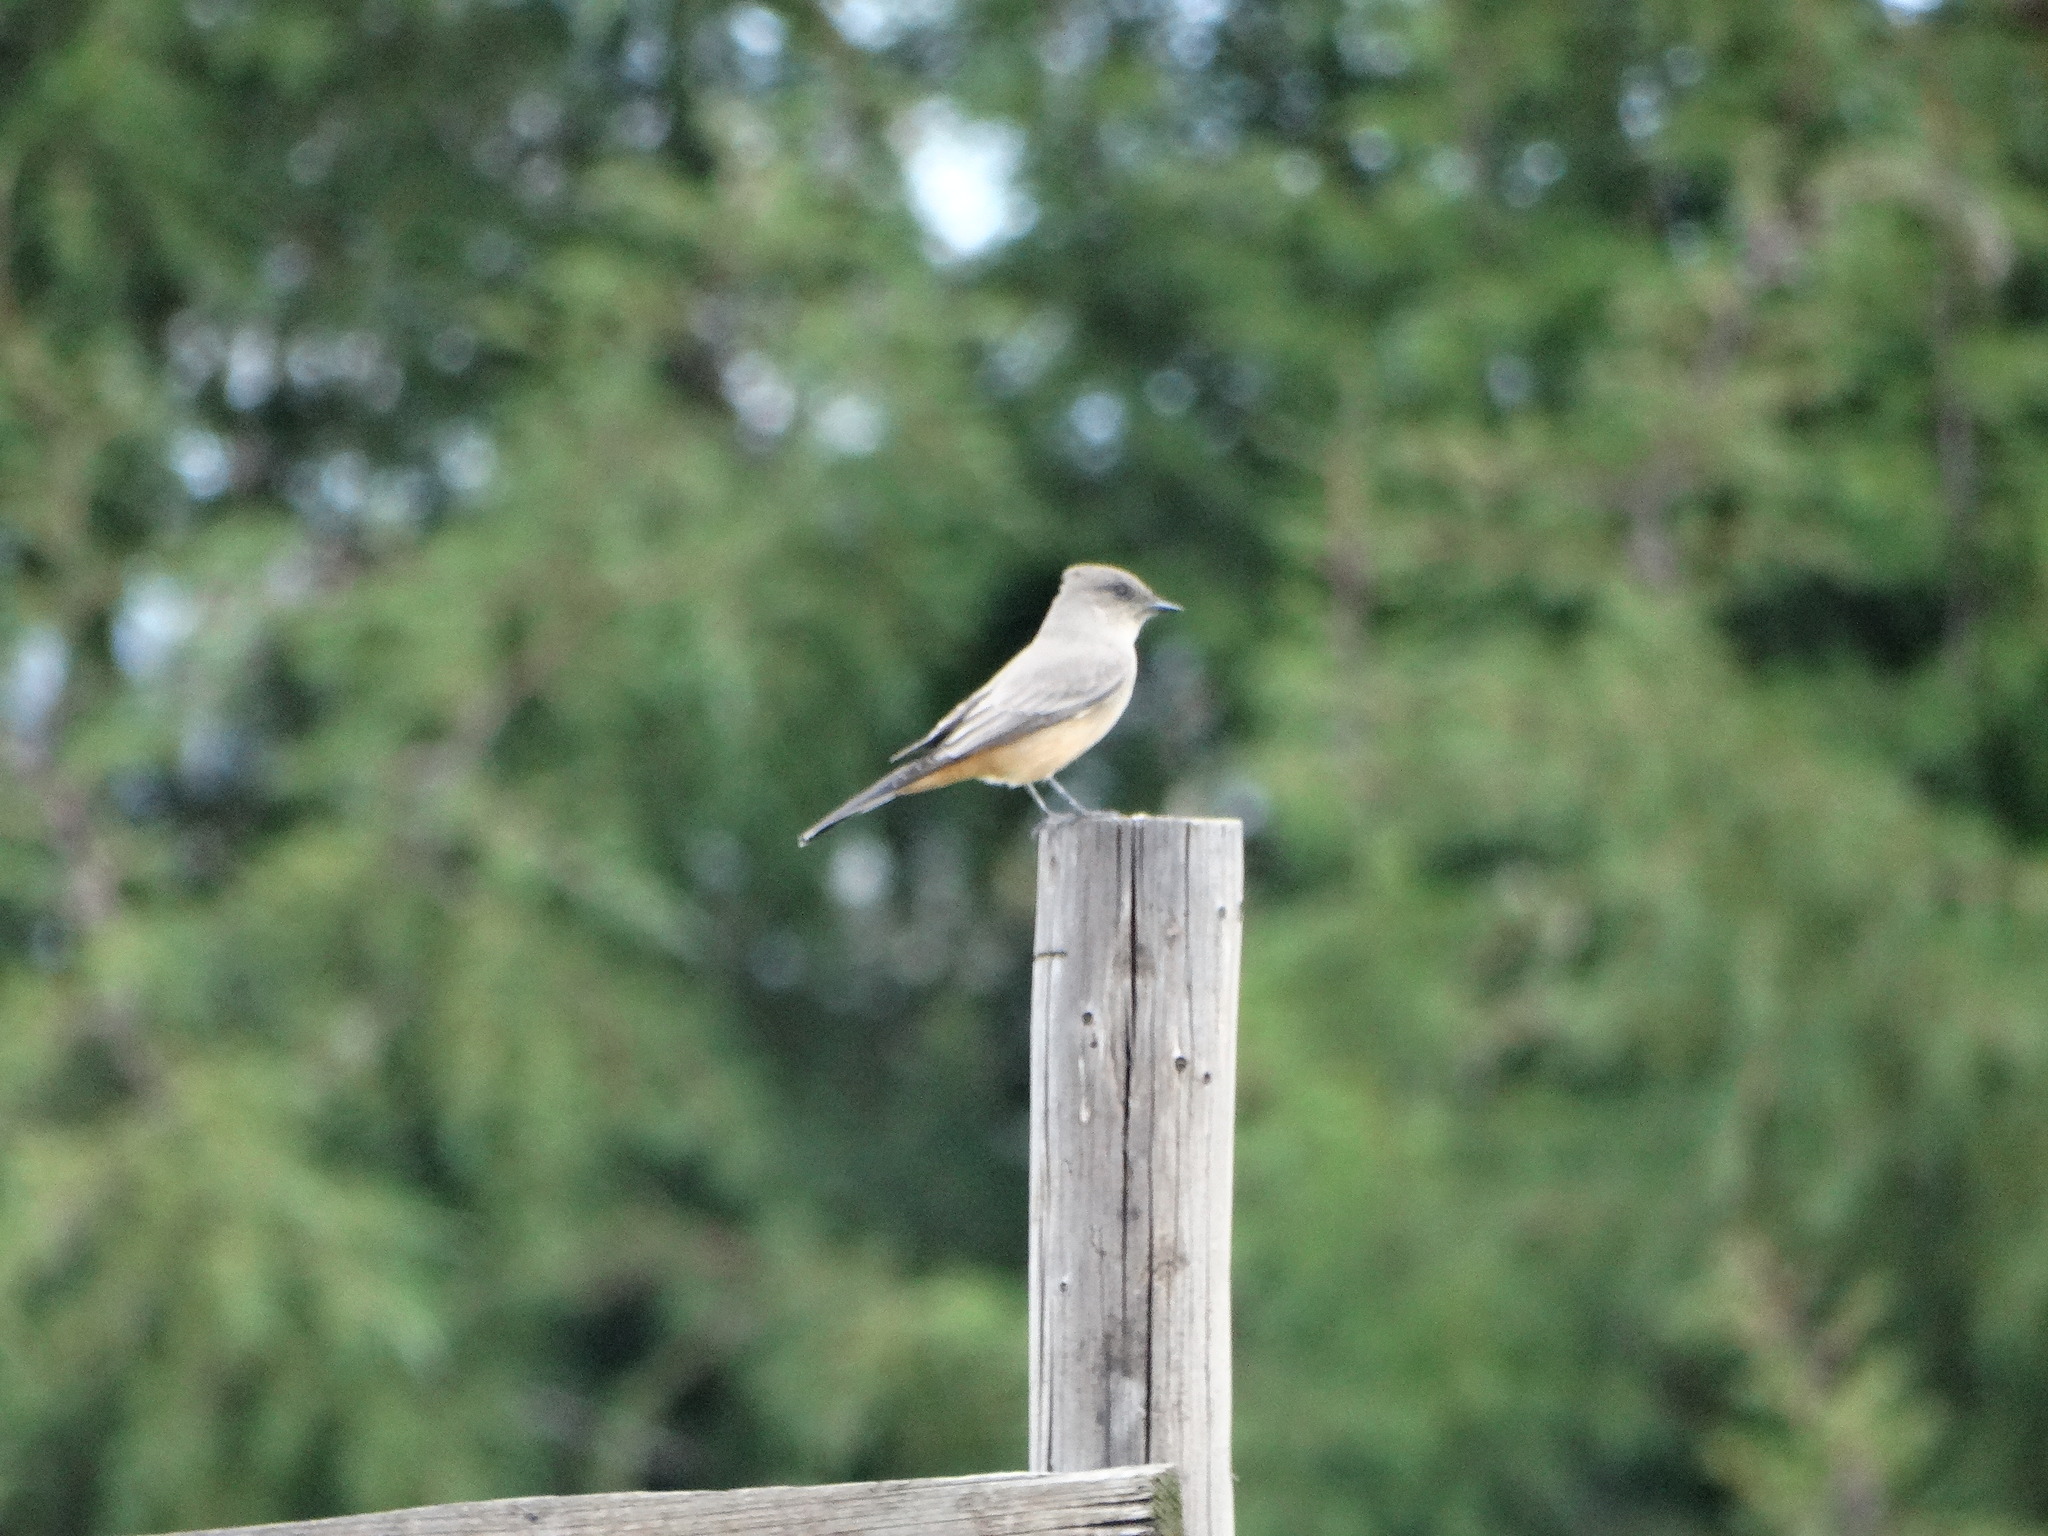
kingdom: Animalia
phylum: Chordata
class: Aves
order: Passeriformes
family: Tyrannidae
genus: Sayornis
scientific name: Sayornis saya
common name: Say's phoebe
